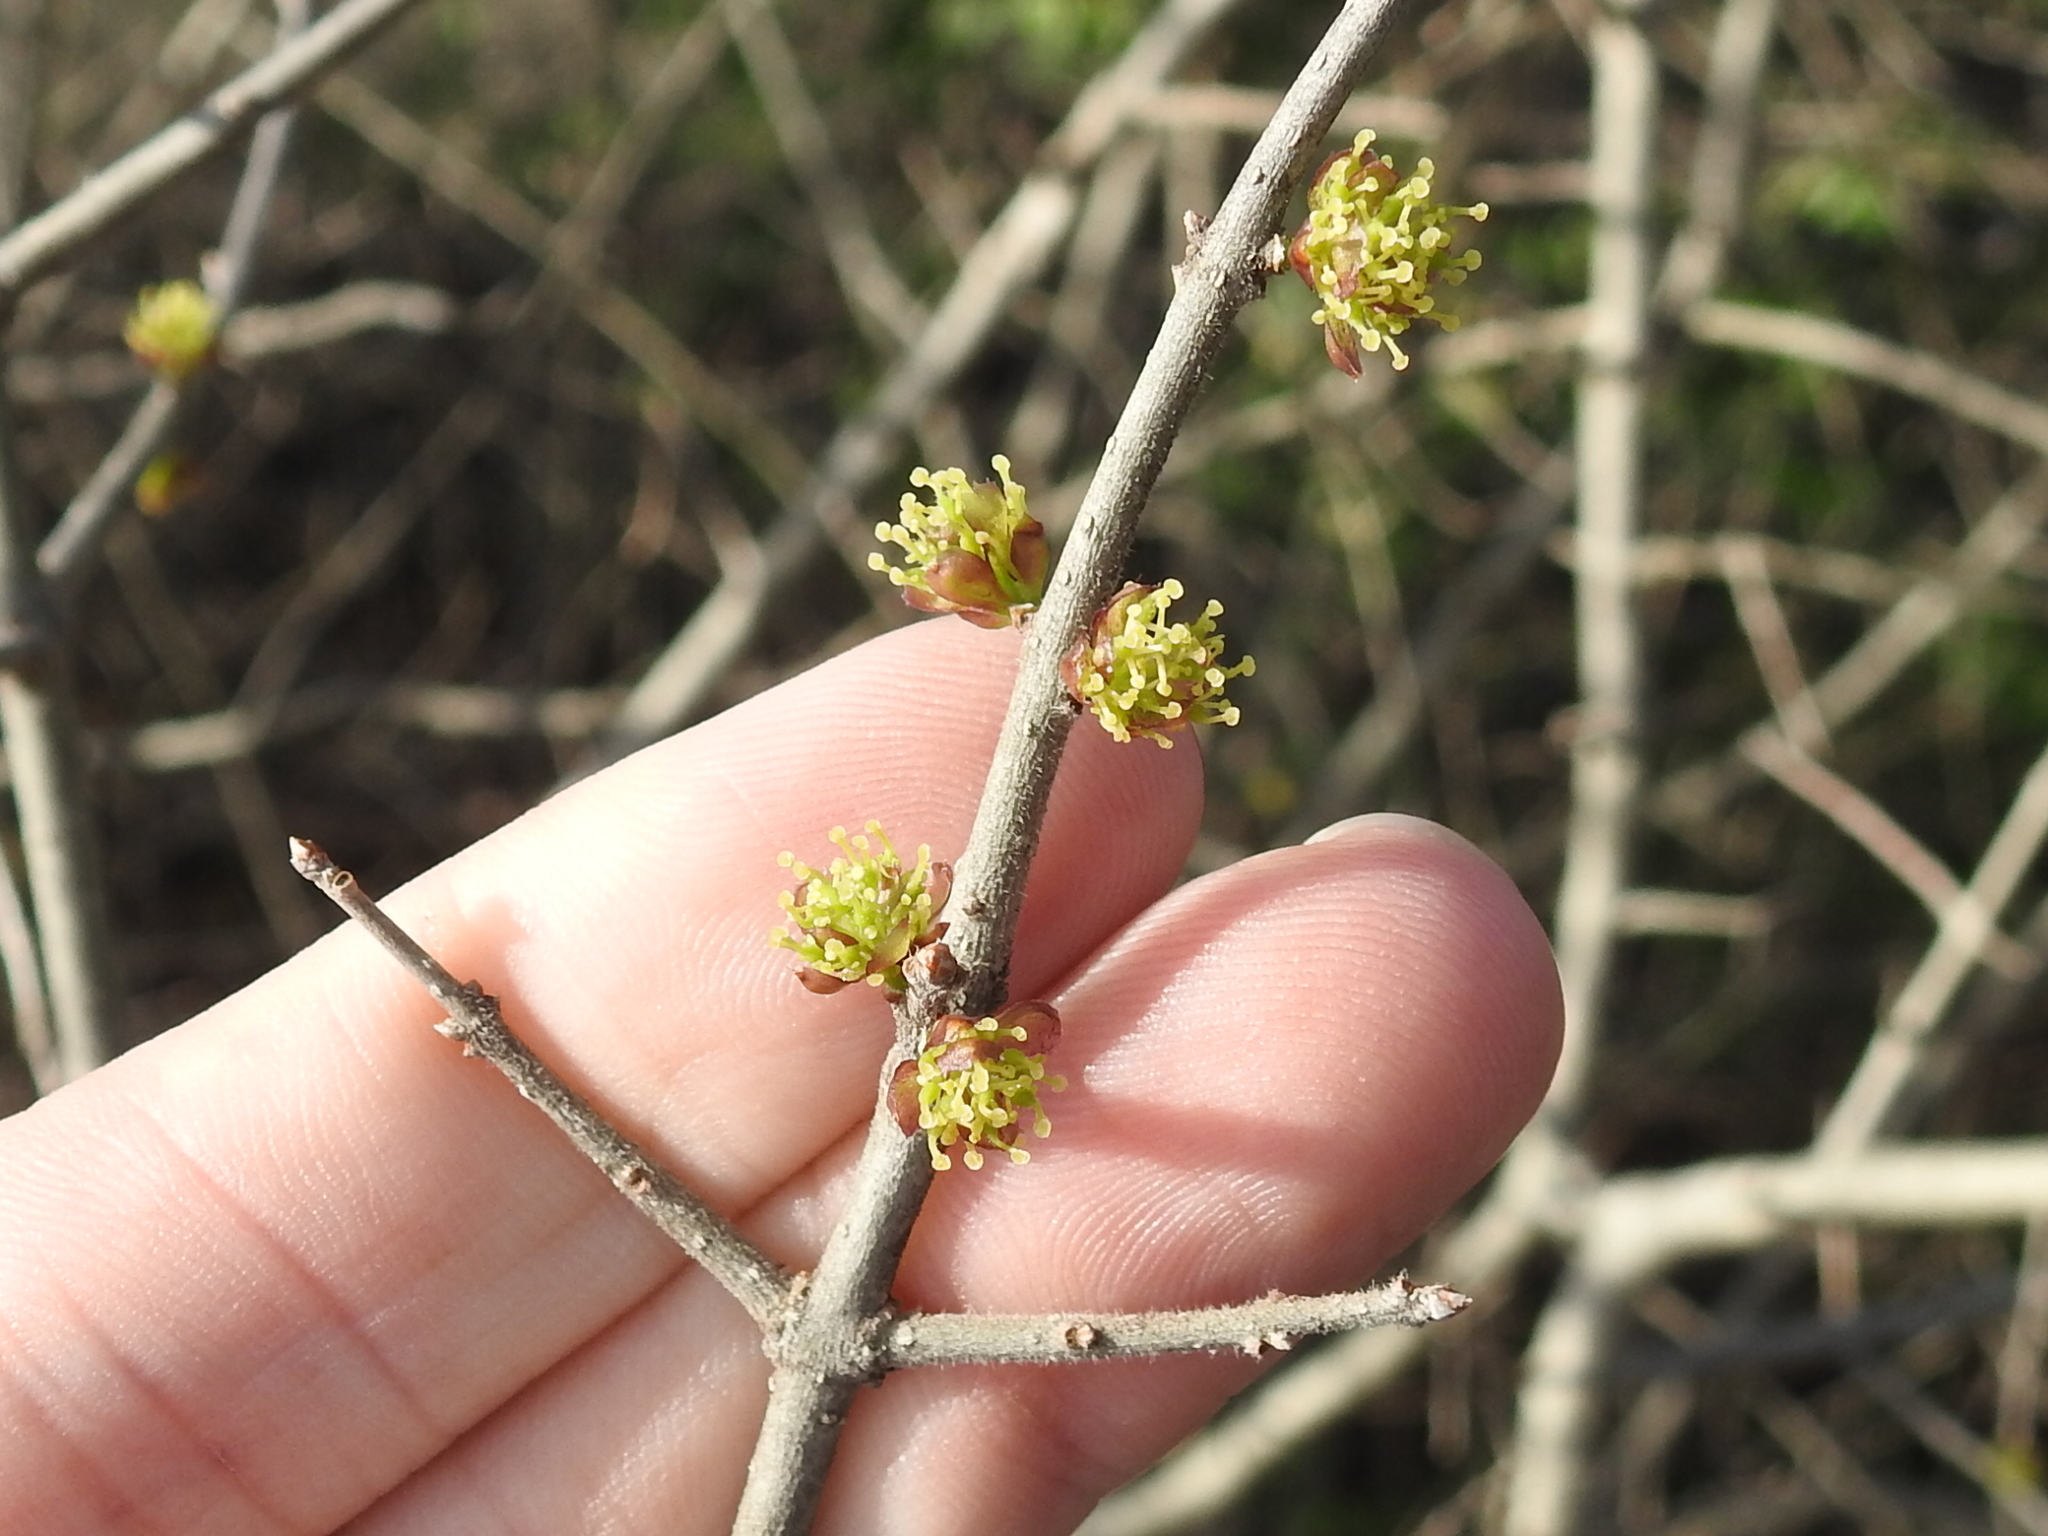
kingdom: Plantae
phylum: Tracheophyta
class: Magnoliopsida
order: Lamiales
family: Oleaceae
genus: Forestiera
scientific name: Forestiera pubescens
